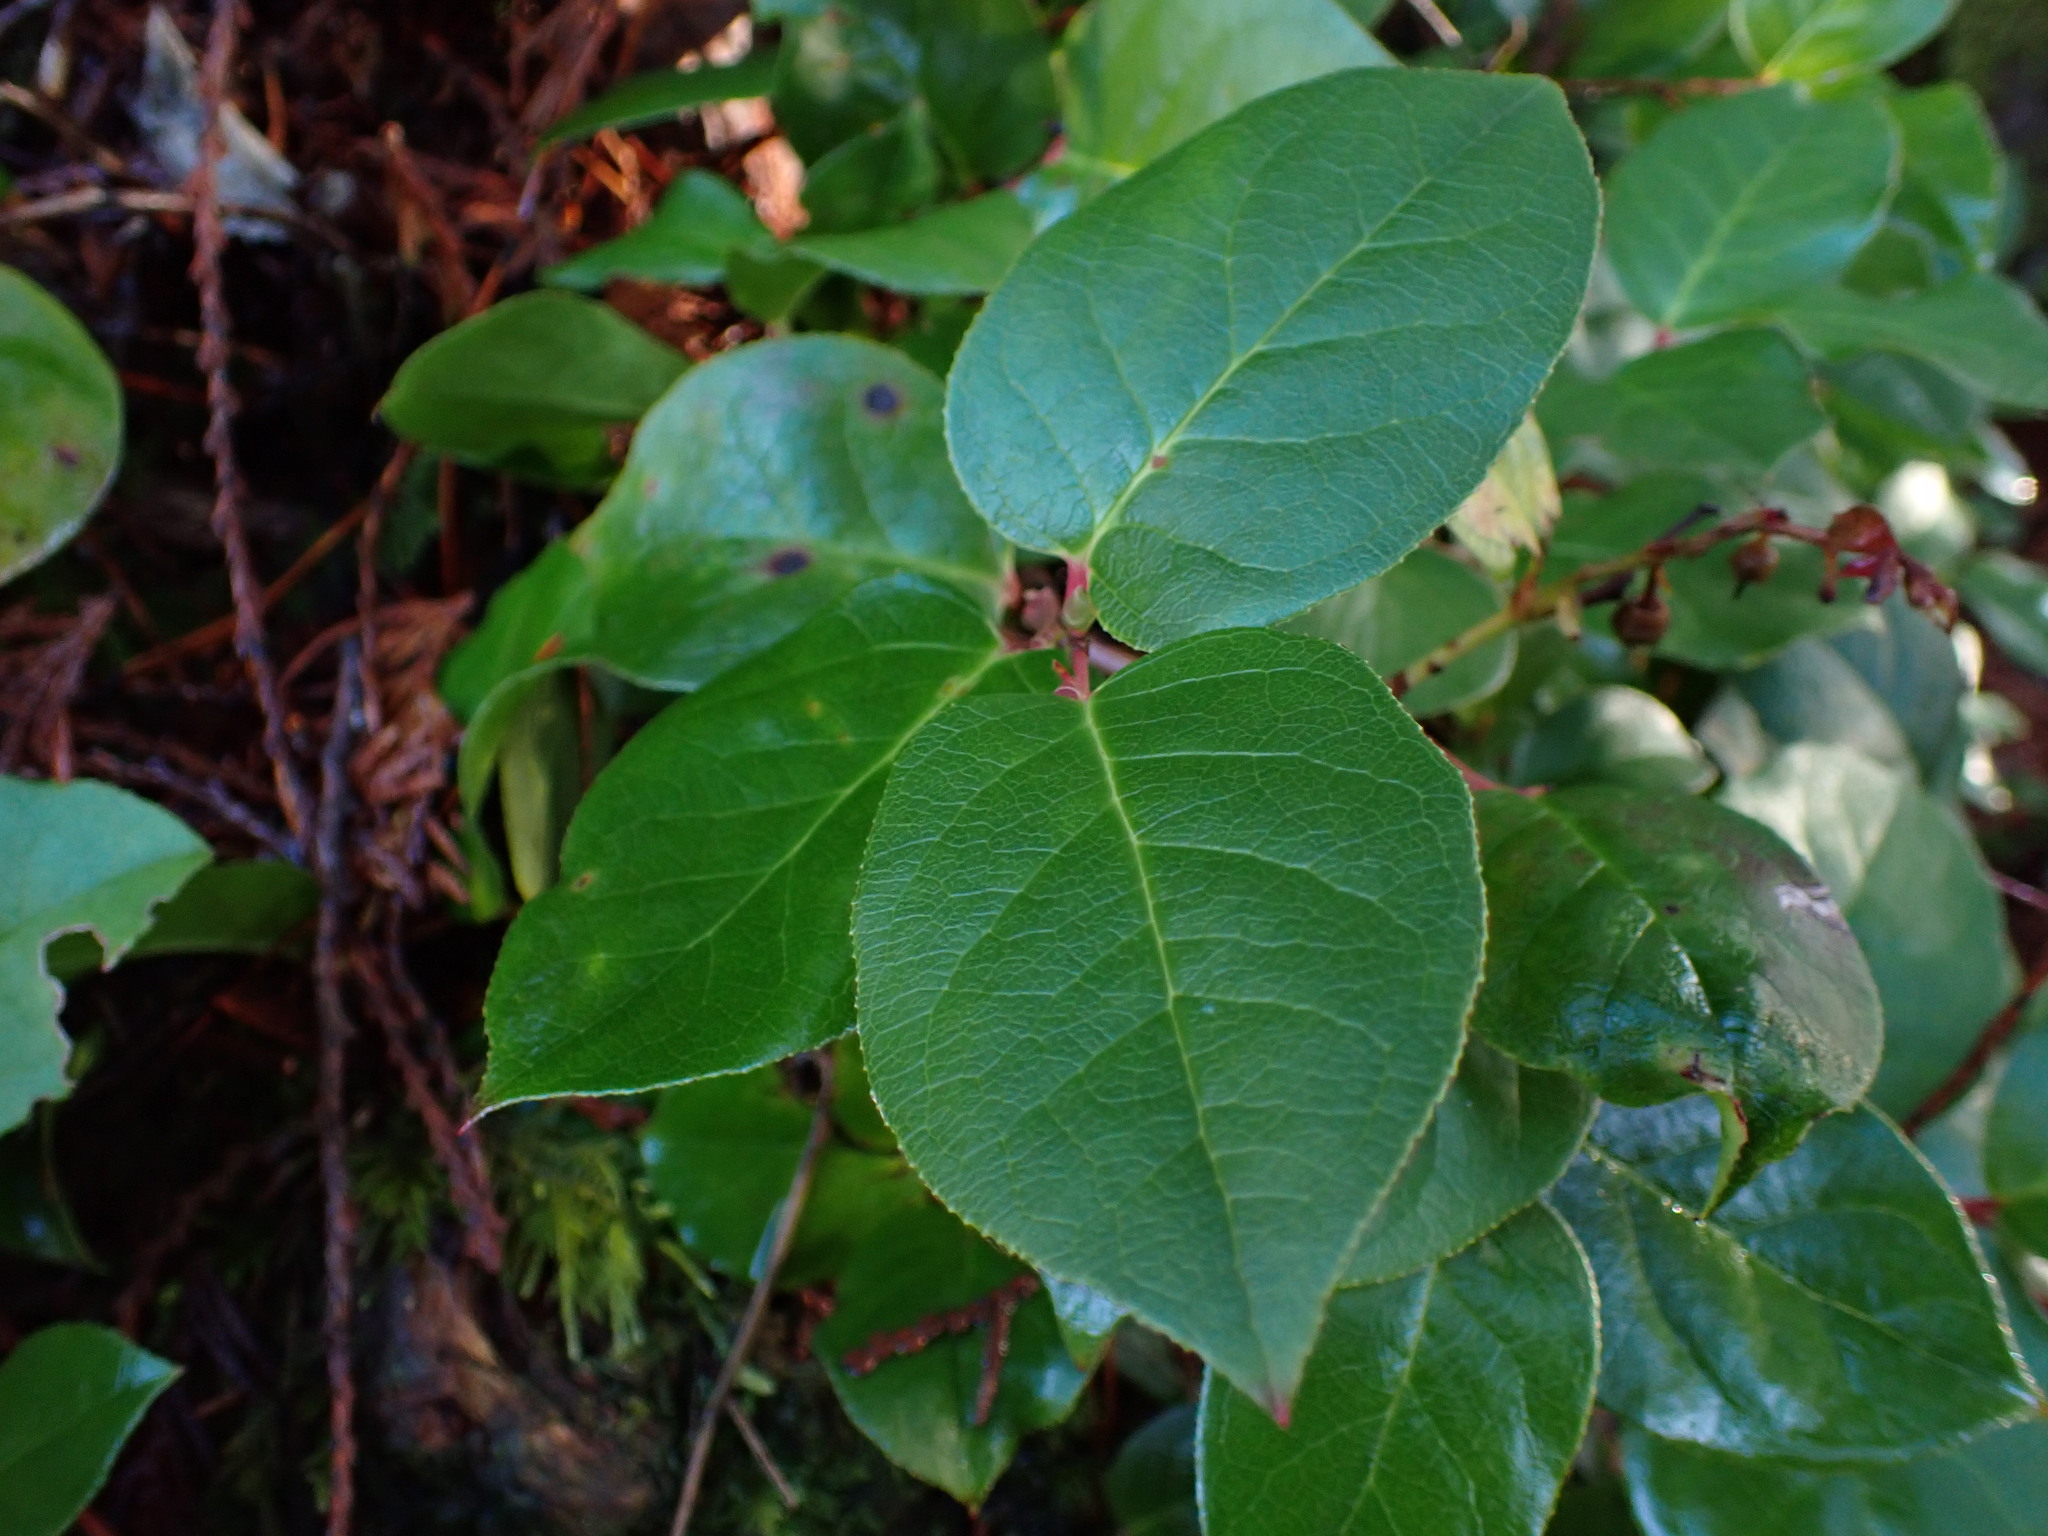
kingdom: Plantae
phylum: Tracheophyta
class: Magnoliopsida
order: Ericales
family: Ericaceae
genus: Gaultheria
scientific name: Gaultheria shallon
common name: Shallon
